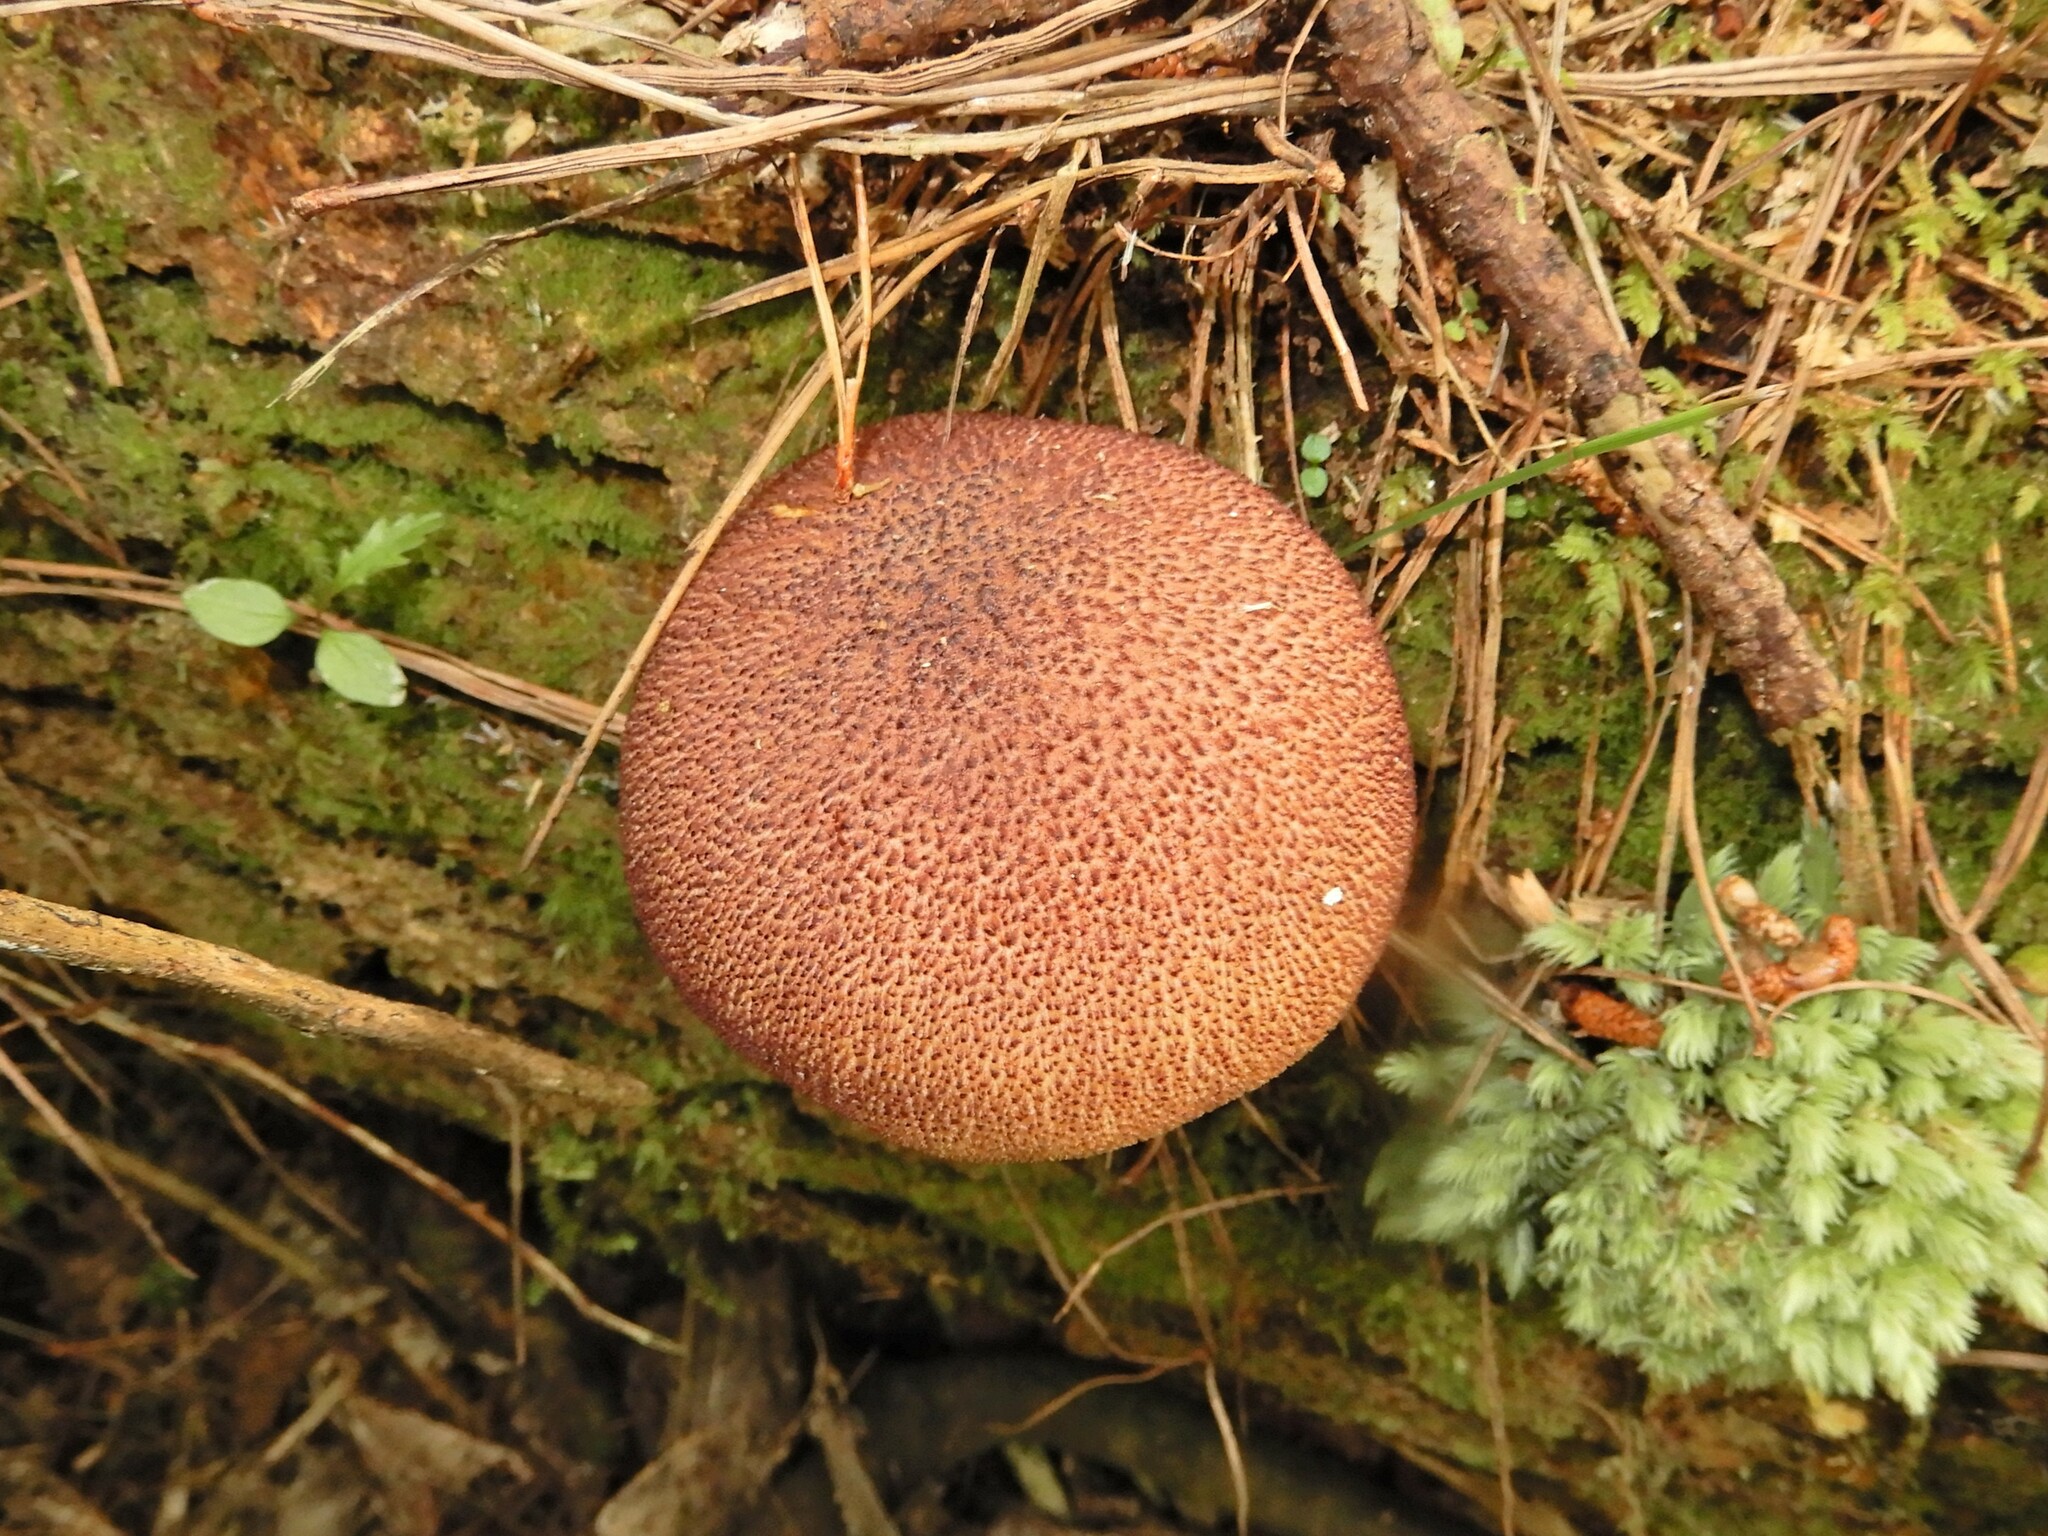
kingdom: Fungi
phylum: Basidiomycota
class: Agaricomycetes
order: Agaricales
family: Tricholomataceae
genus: Tricholomopsis
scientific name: Tricholomopsis ornaticeps
